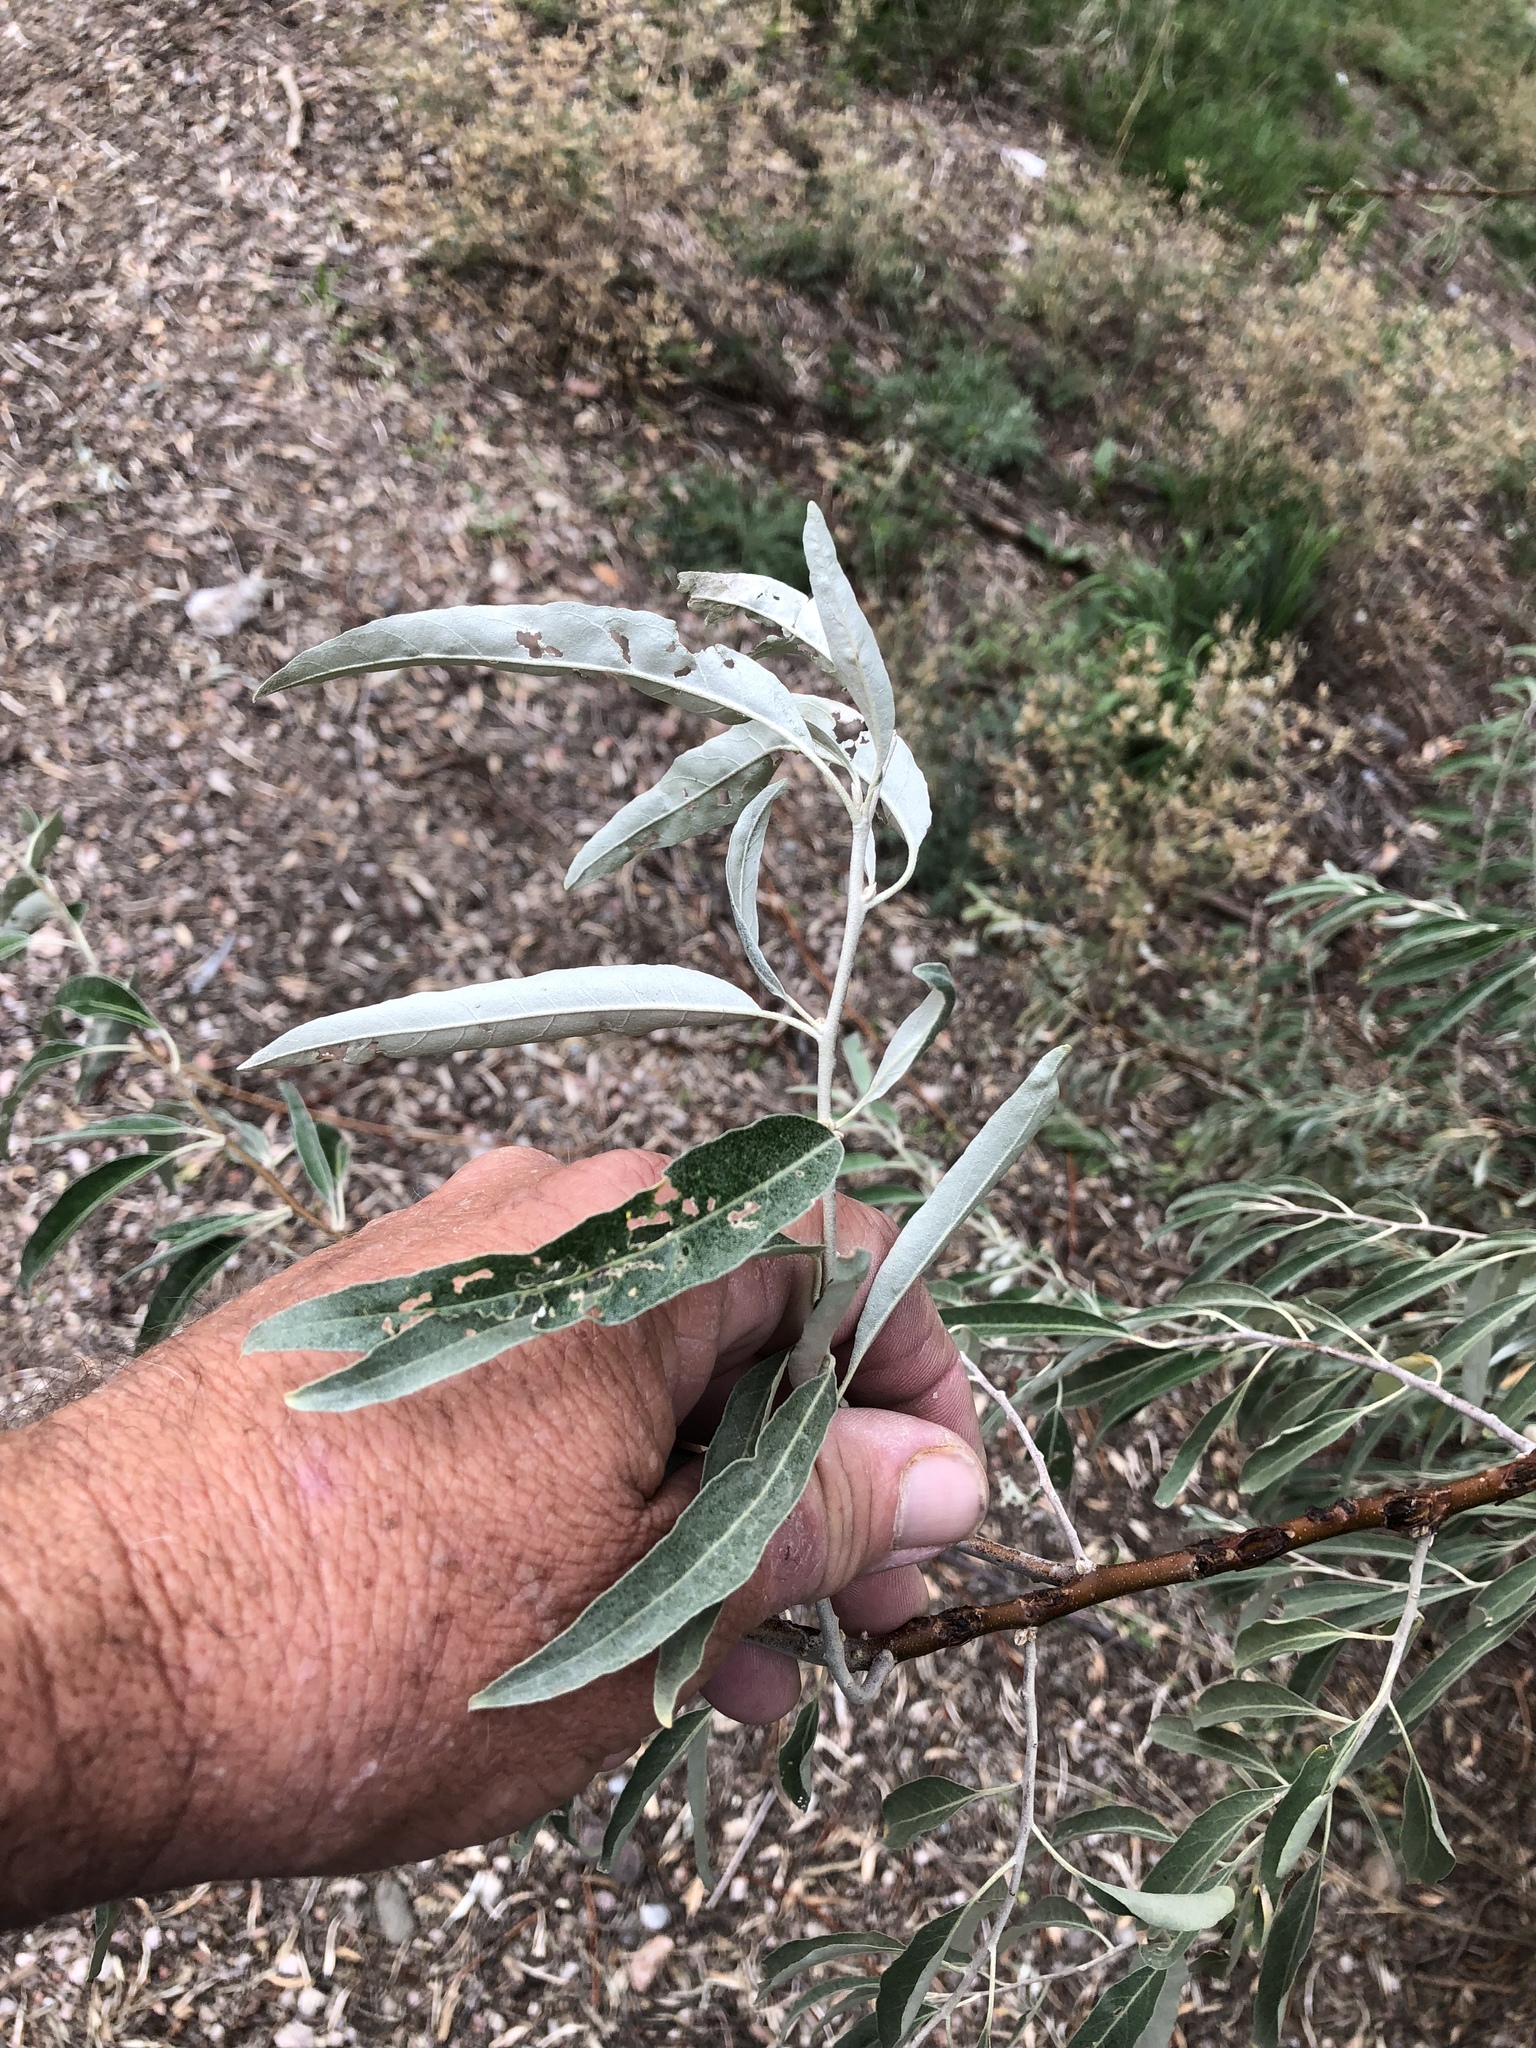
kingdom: Plantae
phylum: Tracheophyta
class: Magnoliopsida
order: Rosales
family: Elaeagnaceae
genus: Elaeagnus
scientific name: Elaeagnus angustifolia
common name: Russian olive
